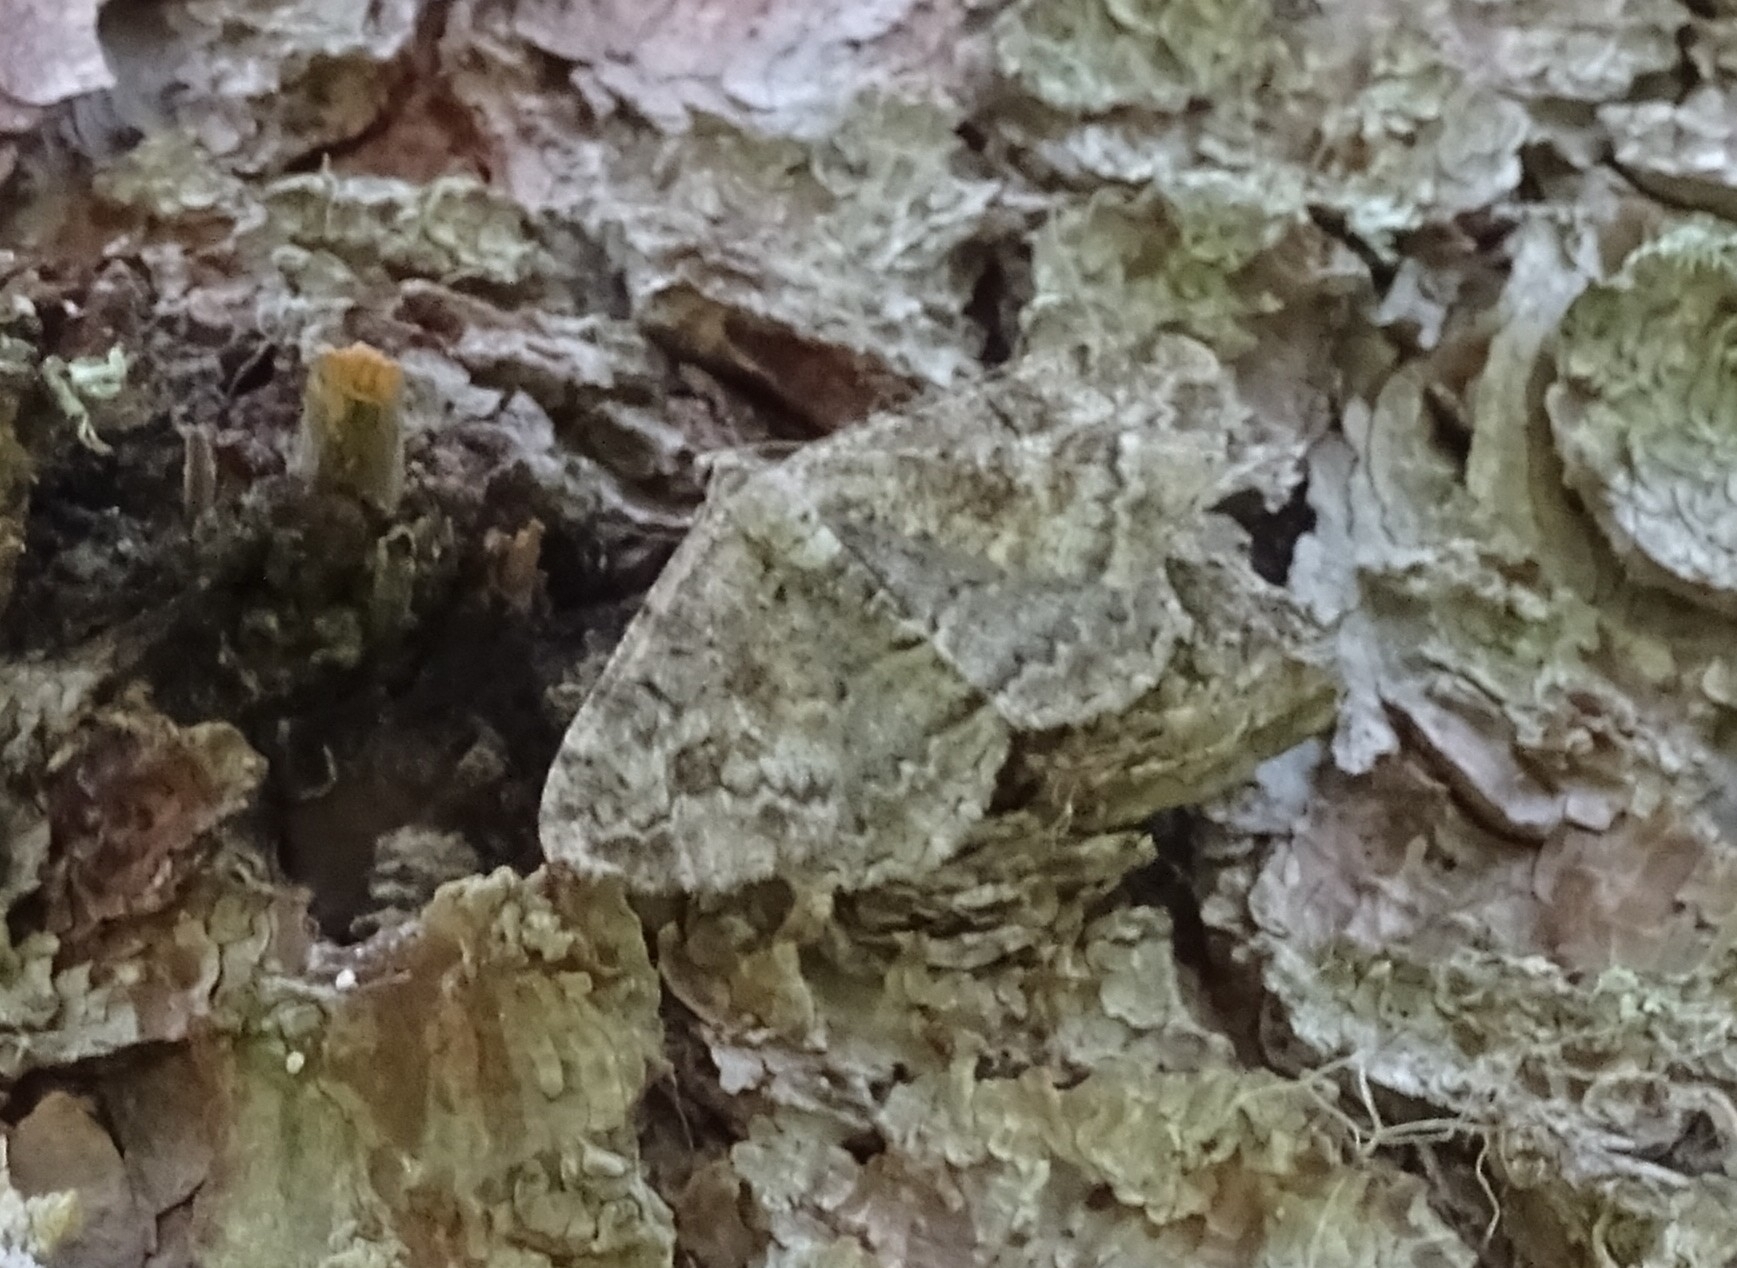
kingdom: Animalia
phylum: Arthropoda
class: Insecta
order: Lepidoptera
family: Geometridae
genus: Alcis
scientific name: Alcis repandata
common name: Mottled beauty
